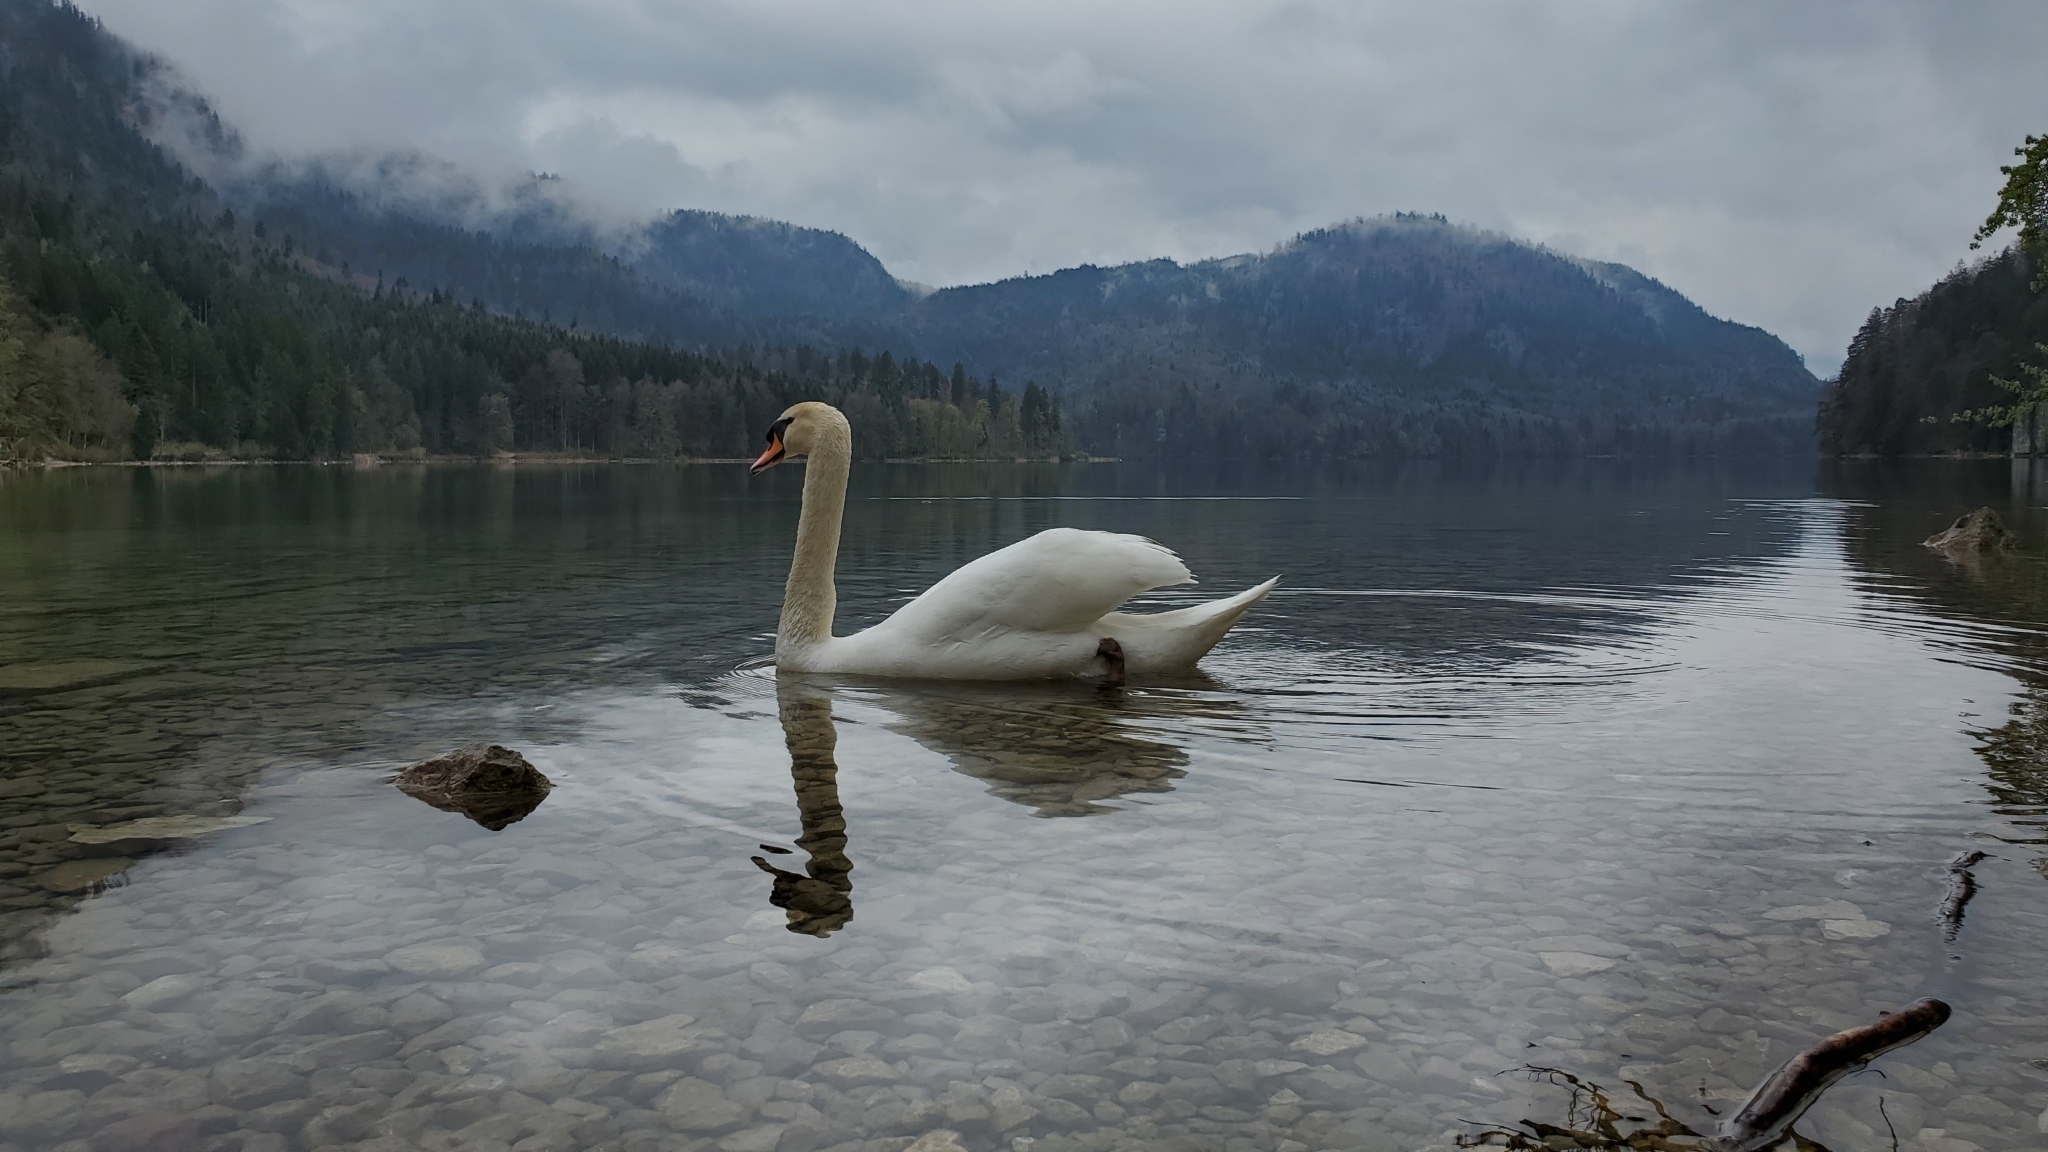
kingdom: Animalia
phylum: Chordata
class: Aves
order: Anseriformes
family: Anatidae
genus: Cygnus
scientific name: Cygnus olor
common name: Mute swan
